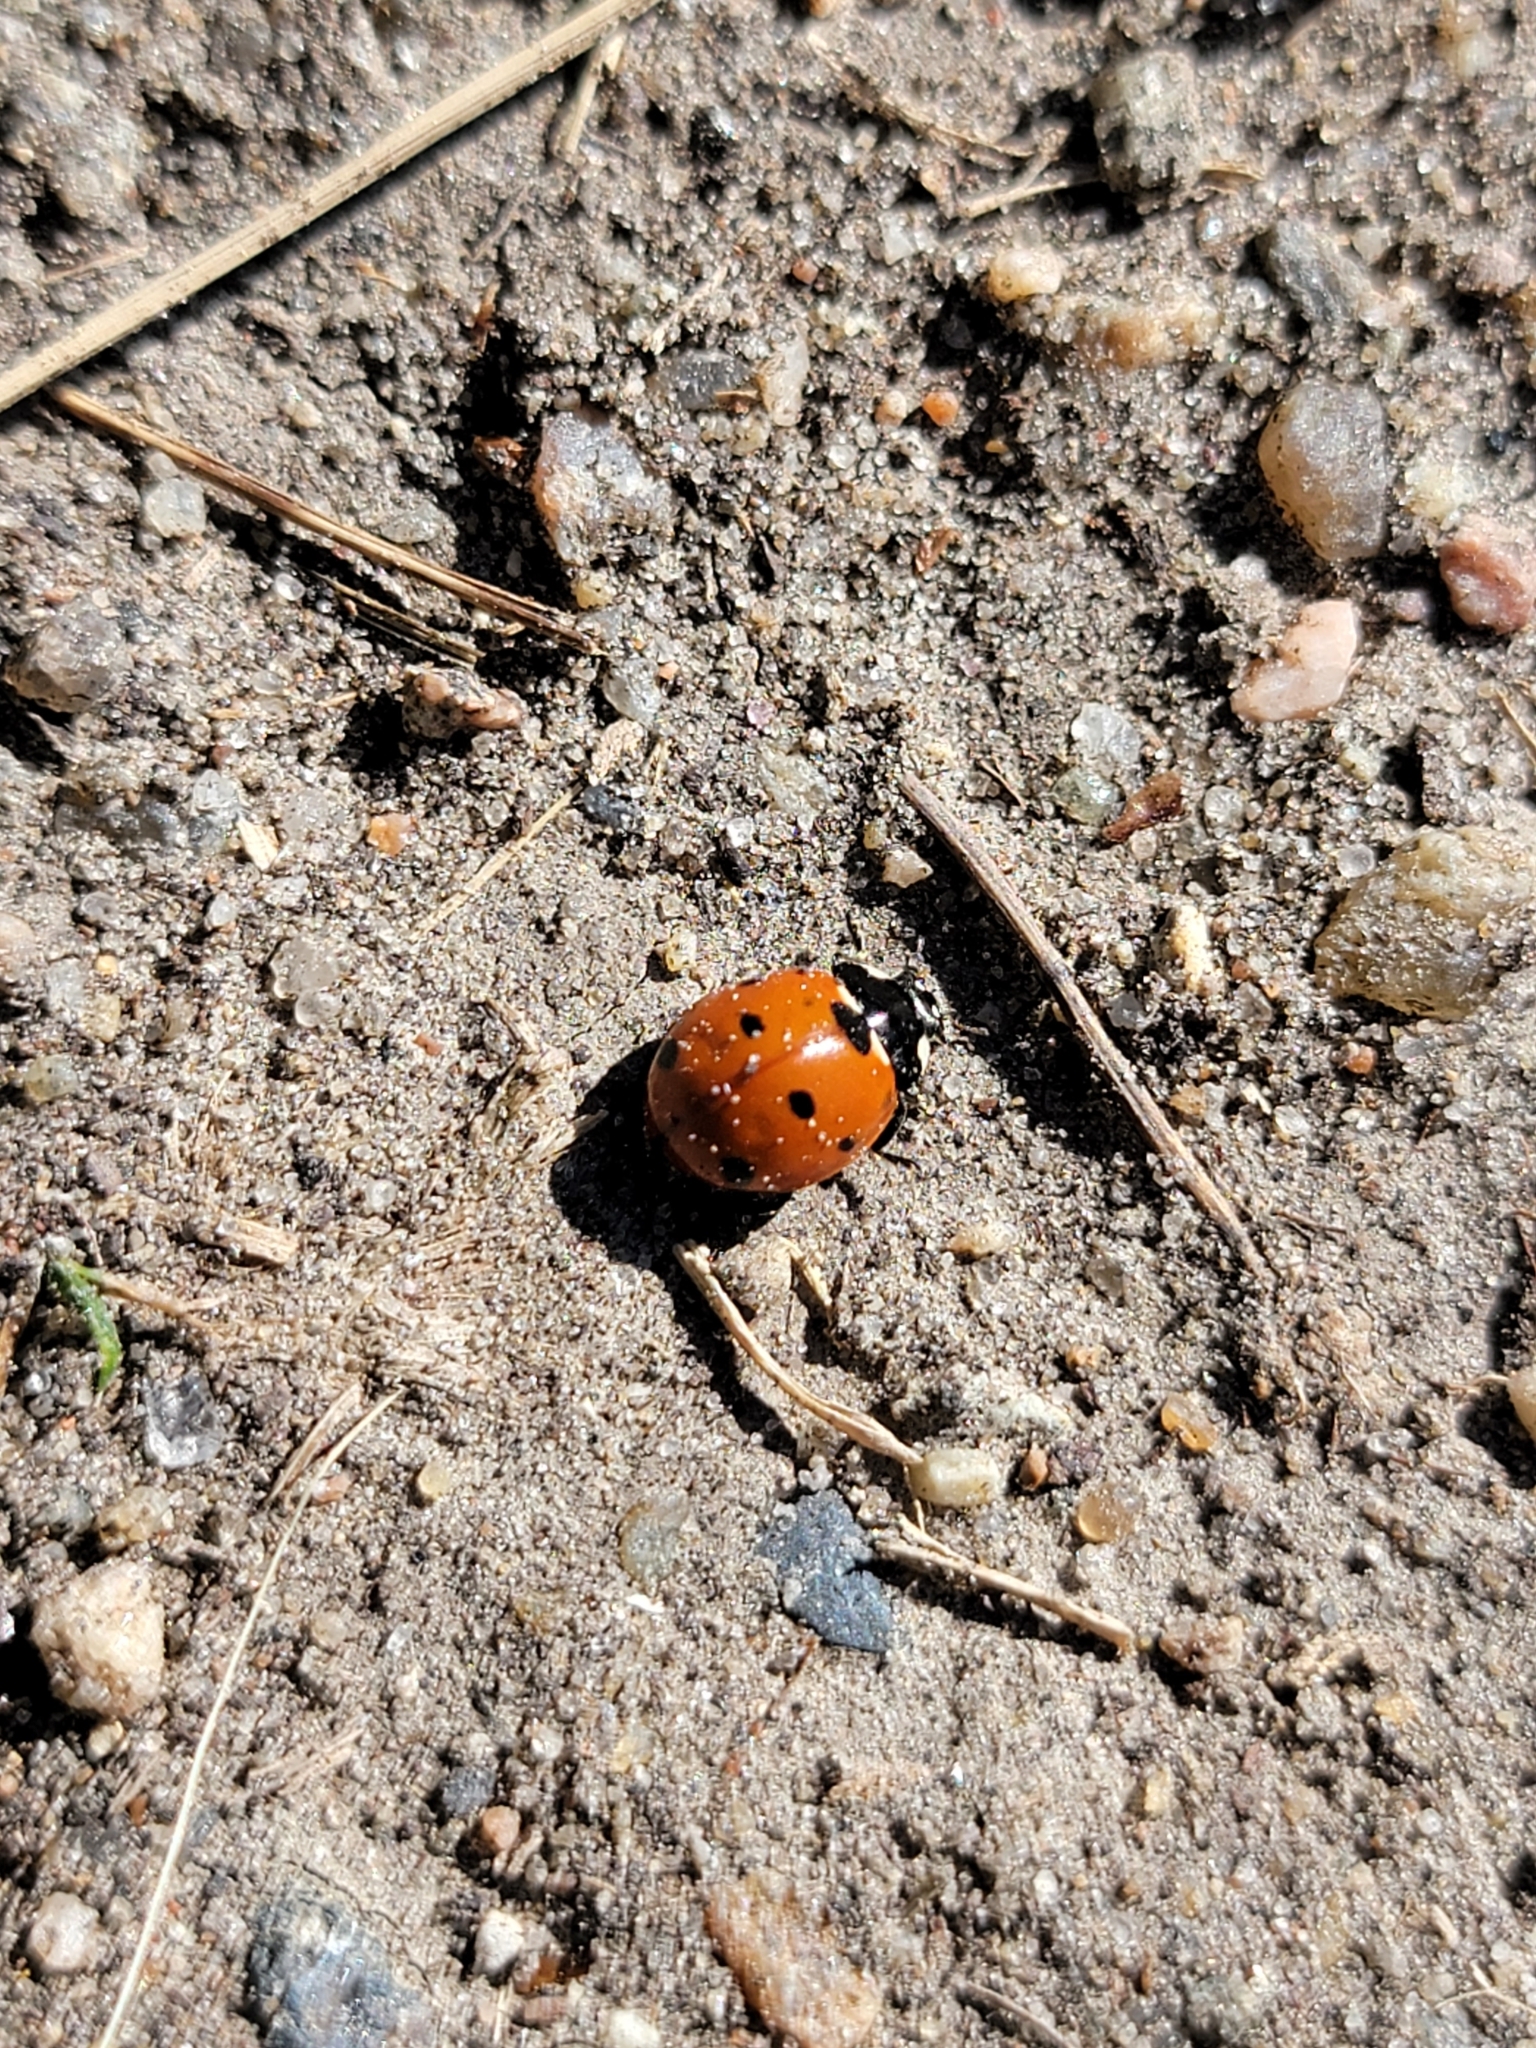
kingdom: Animalia
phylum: Arthropoda
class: Insecta
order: Coleoptera
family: Coccinellidae
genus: Coccinella
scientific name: Coccinella septempunctata
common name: Sevenspotted lady beetle
